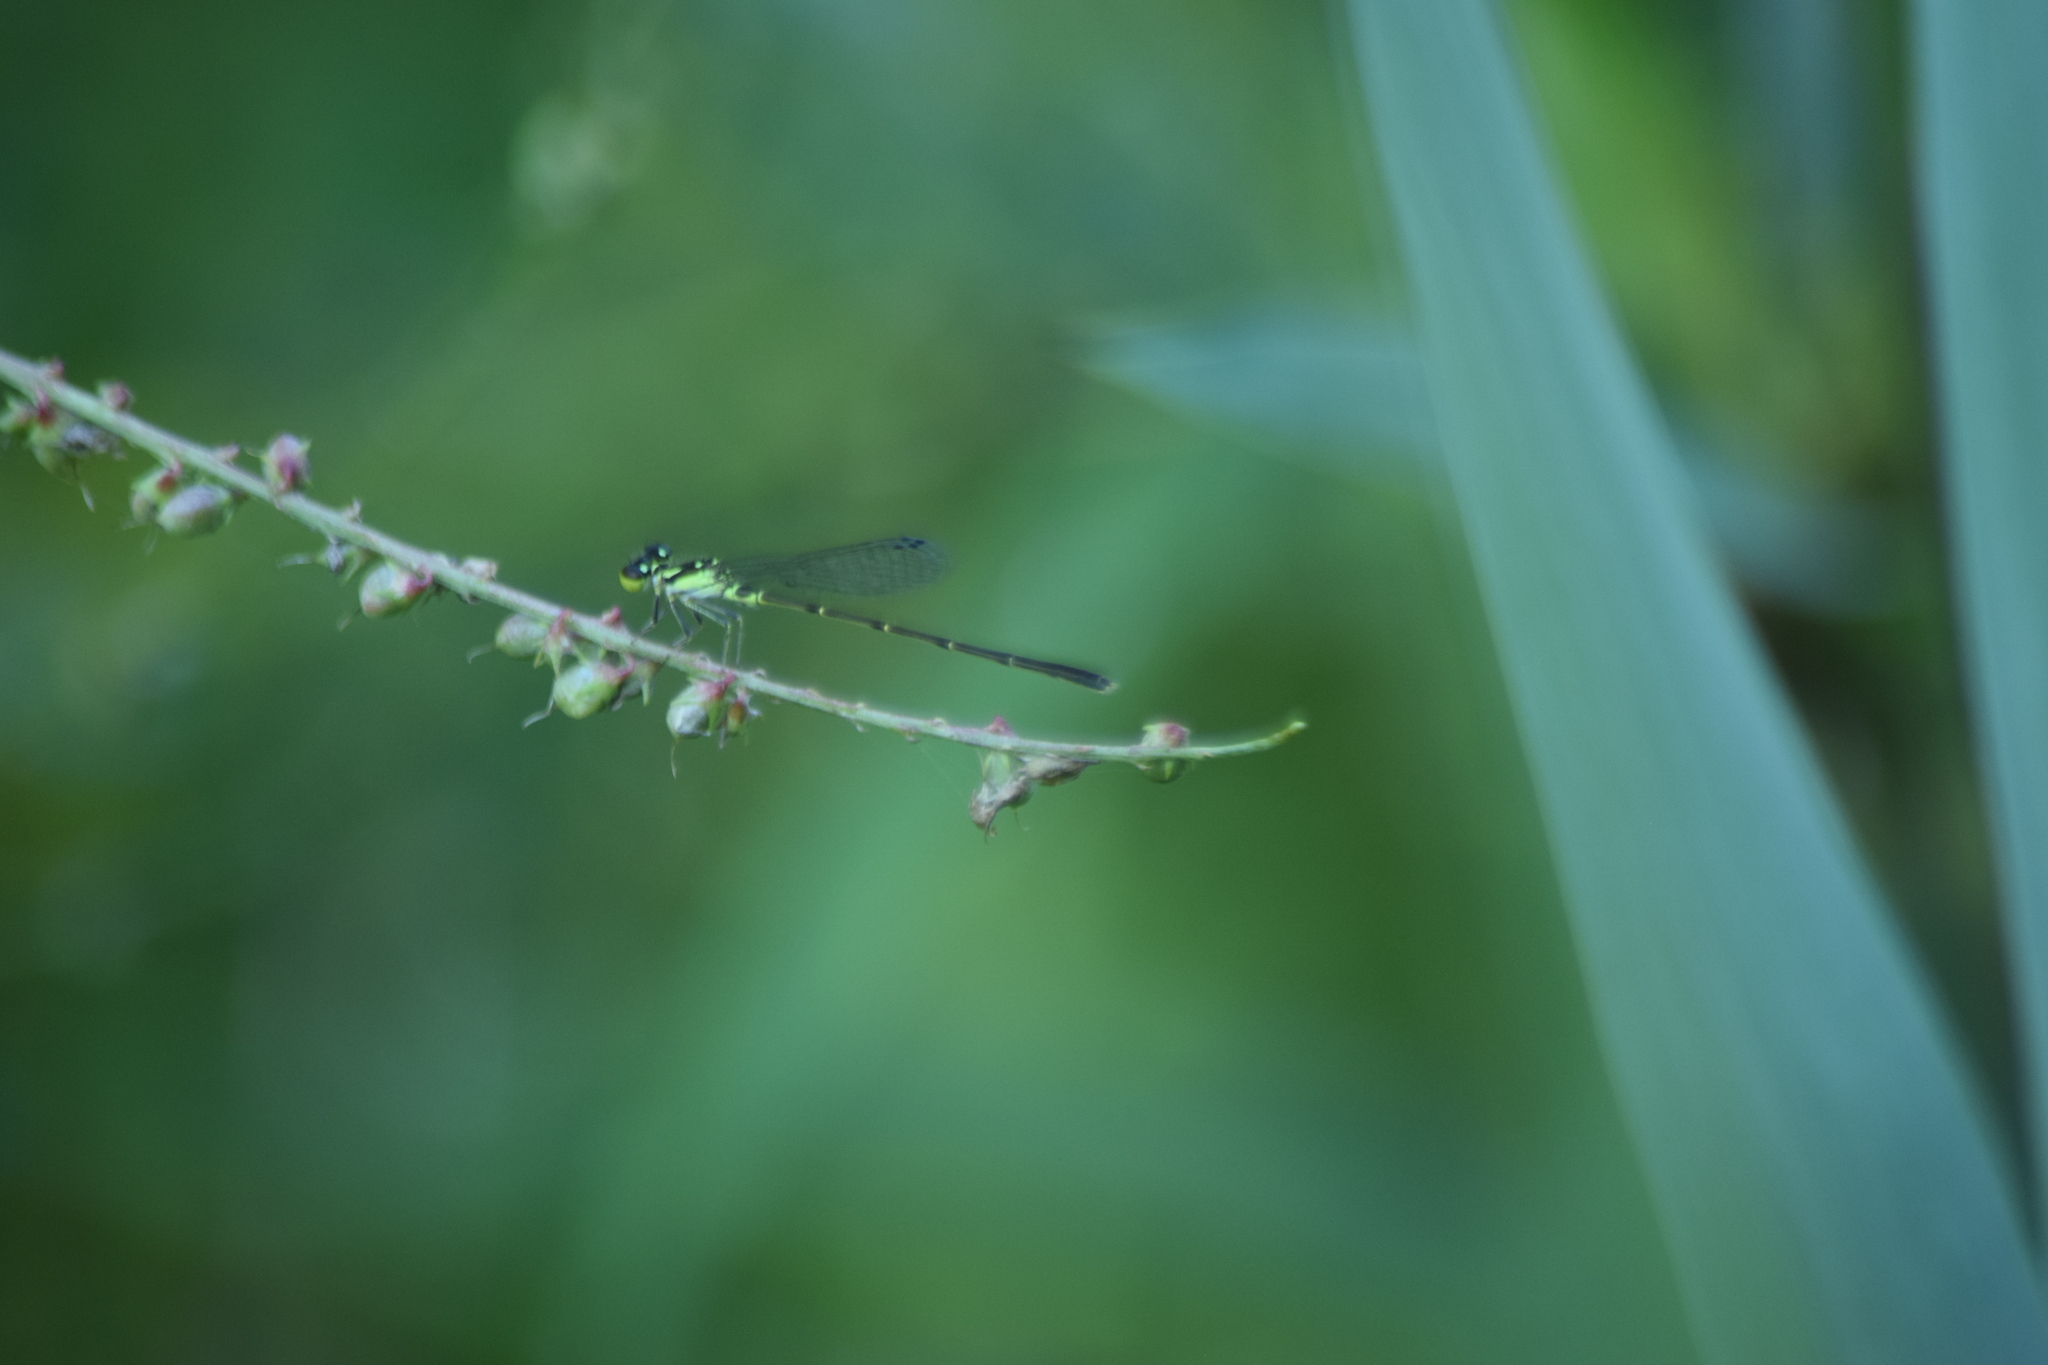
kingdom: Animalia
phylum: Arthropoda
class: Insecta
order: Odonata
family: Coenagrionidae
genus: Ischnura
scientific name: Ischnura posita
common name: Fragile forktail
